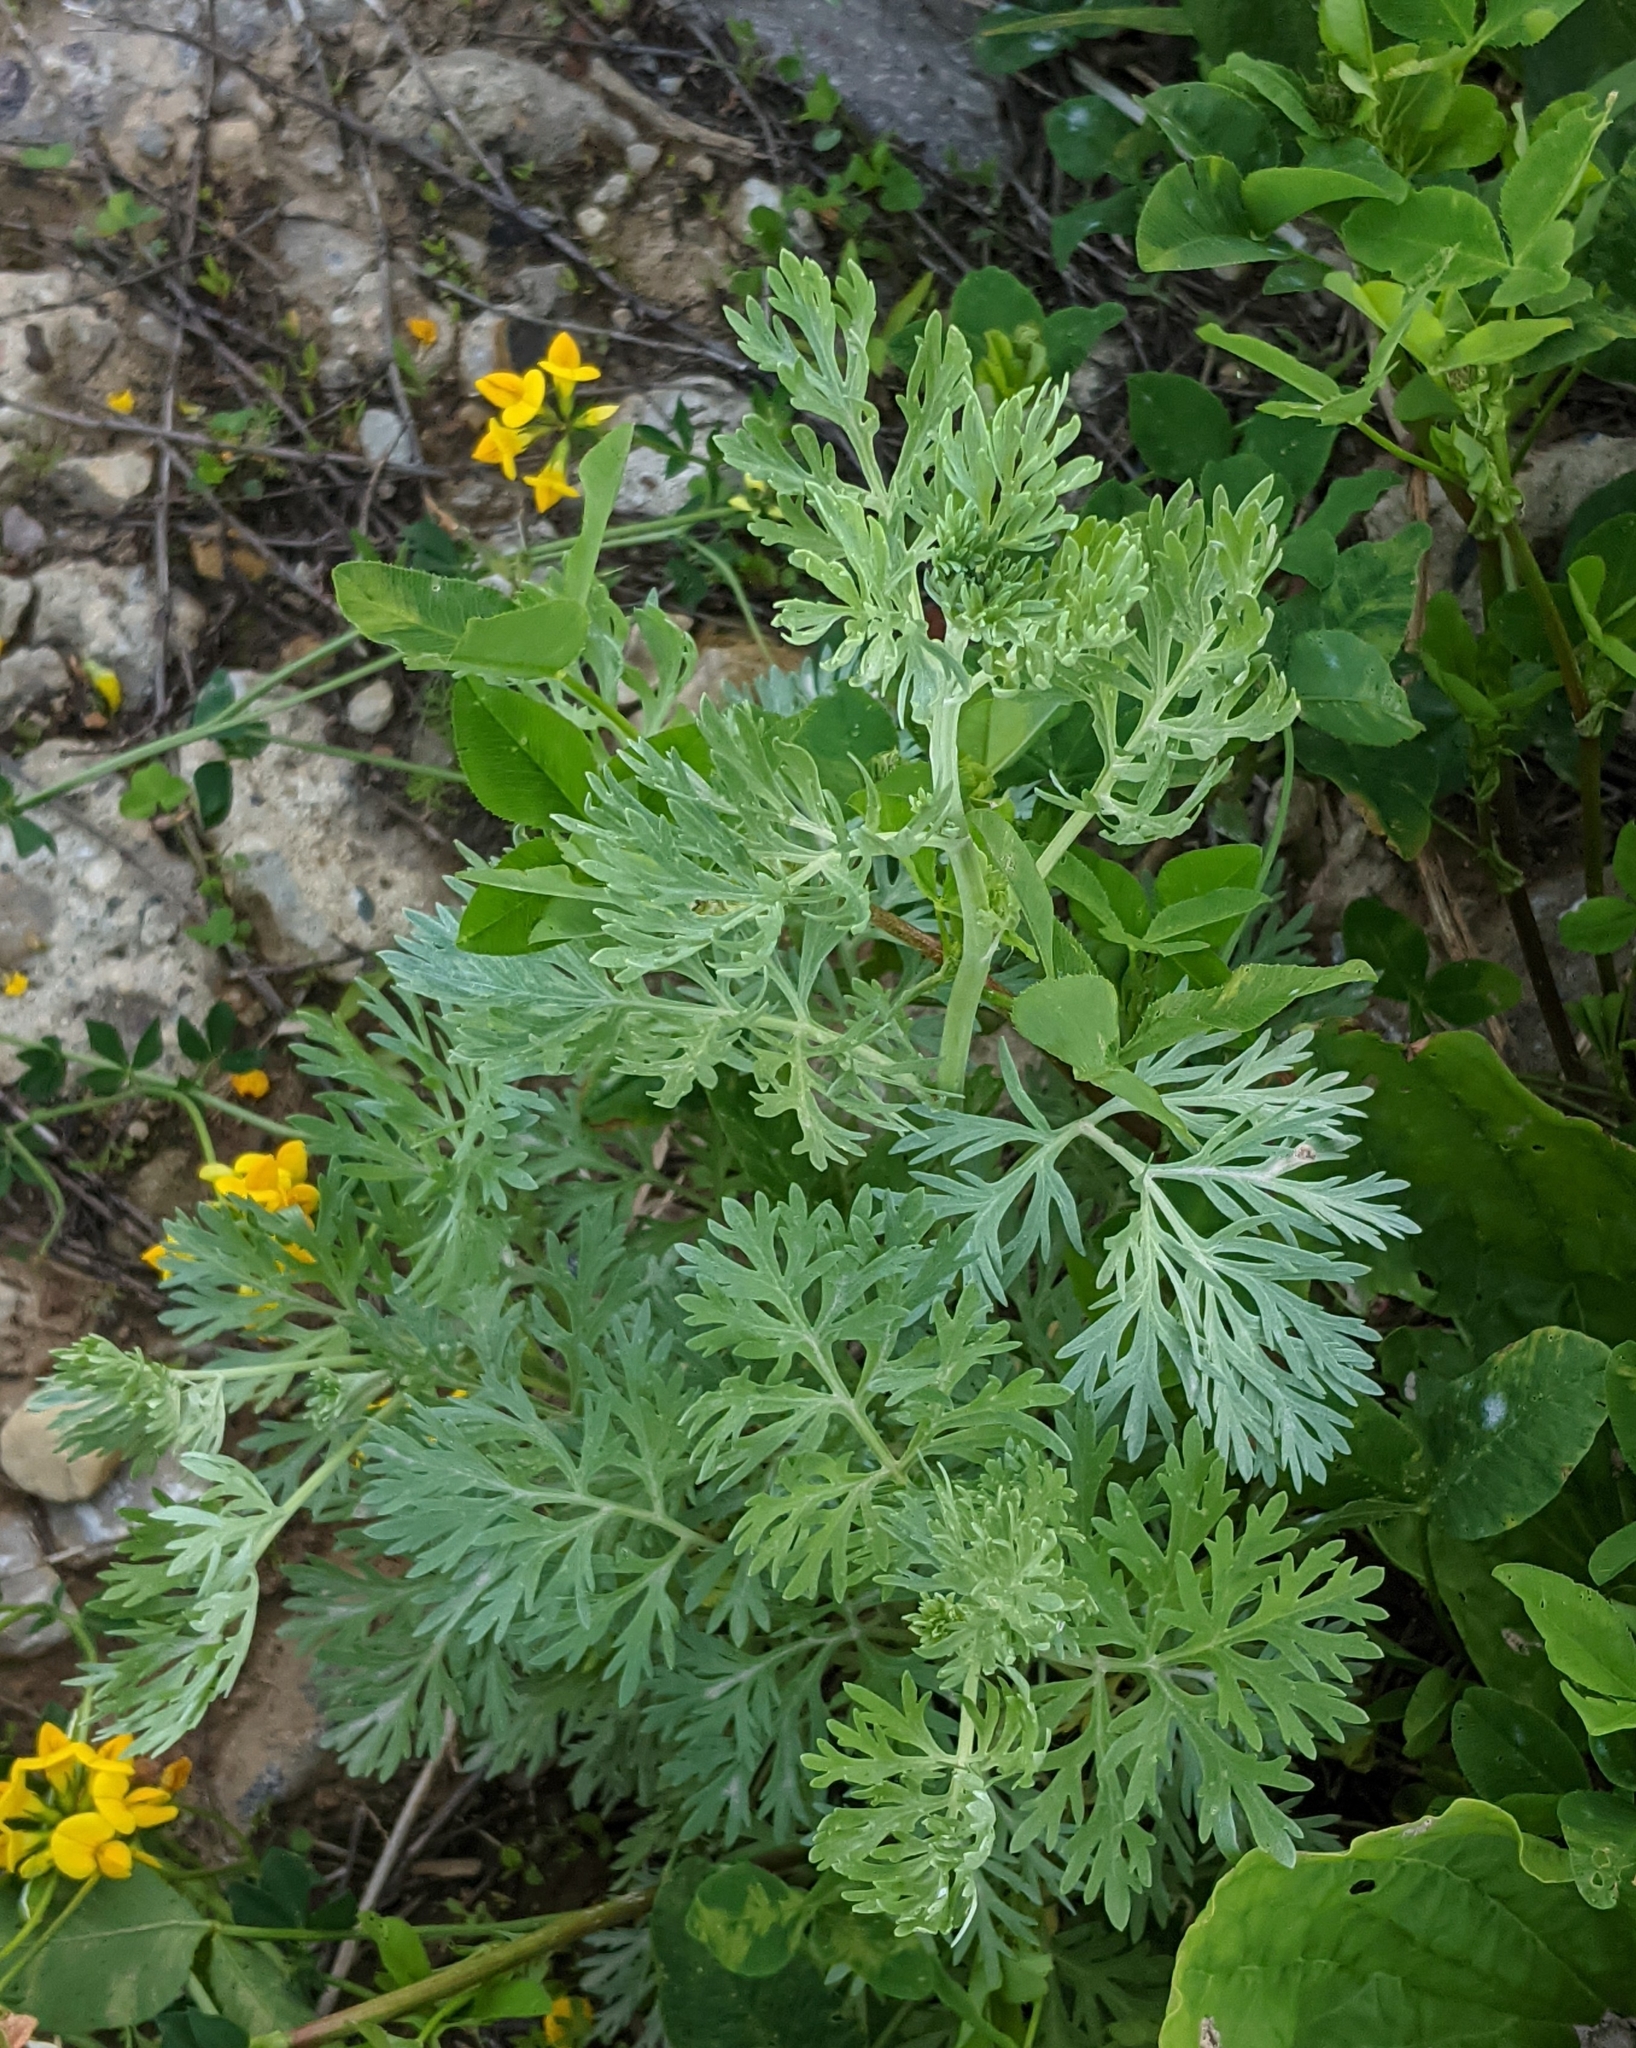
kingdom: Plantae
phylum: Tracheophyta
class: Magnoliopsida
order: Asterales
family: Asteraceae
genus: Artemisia
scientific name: Artemisia absinthium
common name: Wormwood
